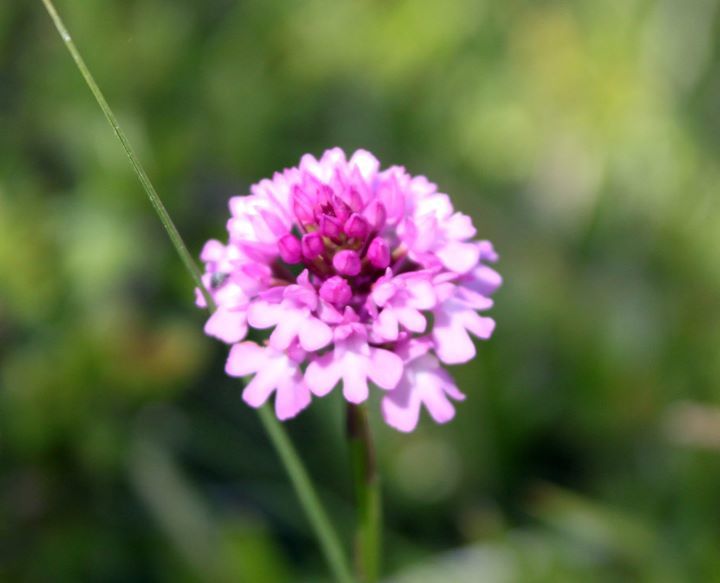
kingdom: Plantae
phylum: Tracheophyta
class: Liliopsida
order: Asparagales
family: Orchidaceae
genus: Anacamptis
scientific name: Anacamptis pyramidalis
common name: Pyramidal orchid
